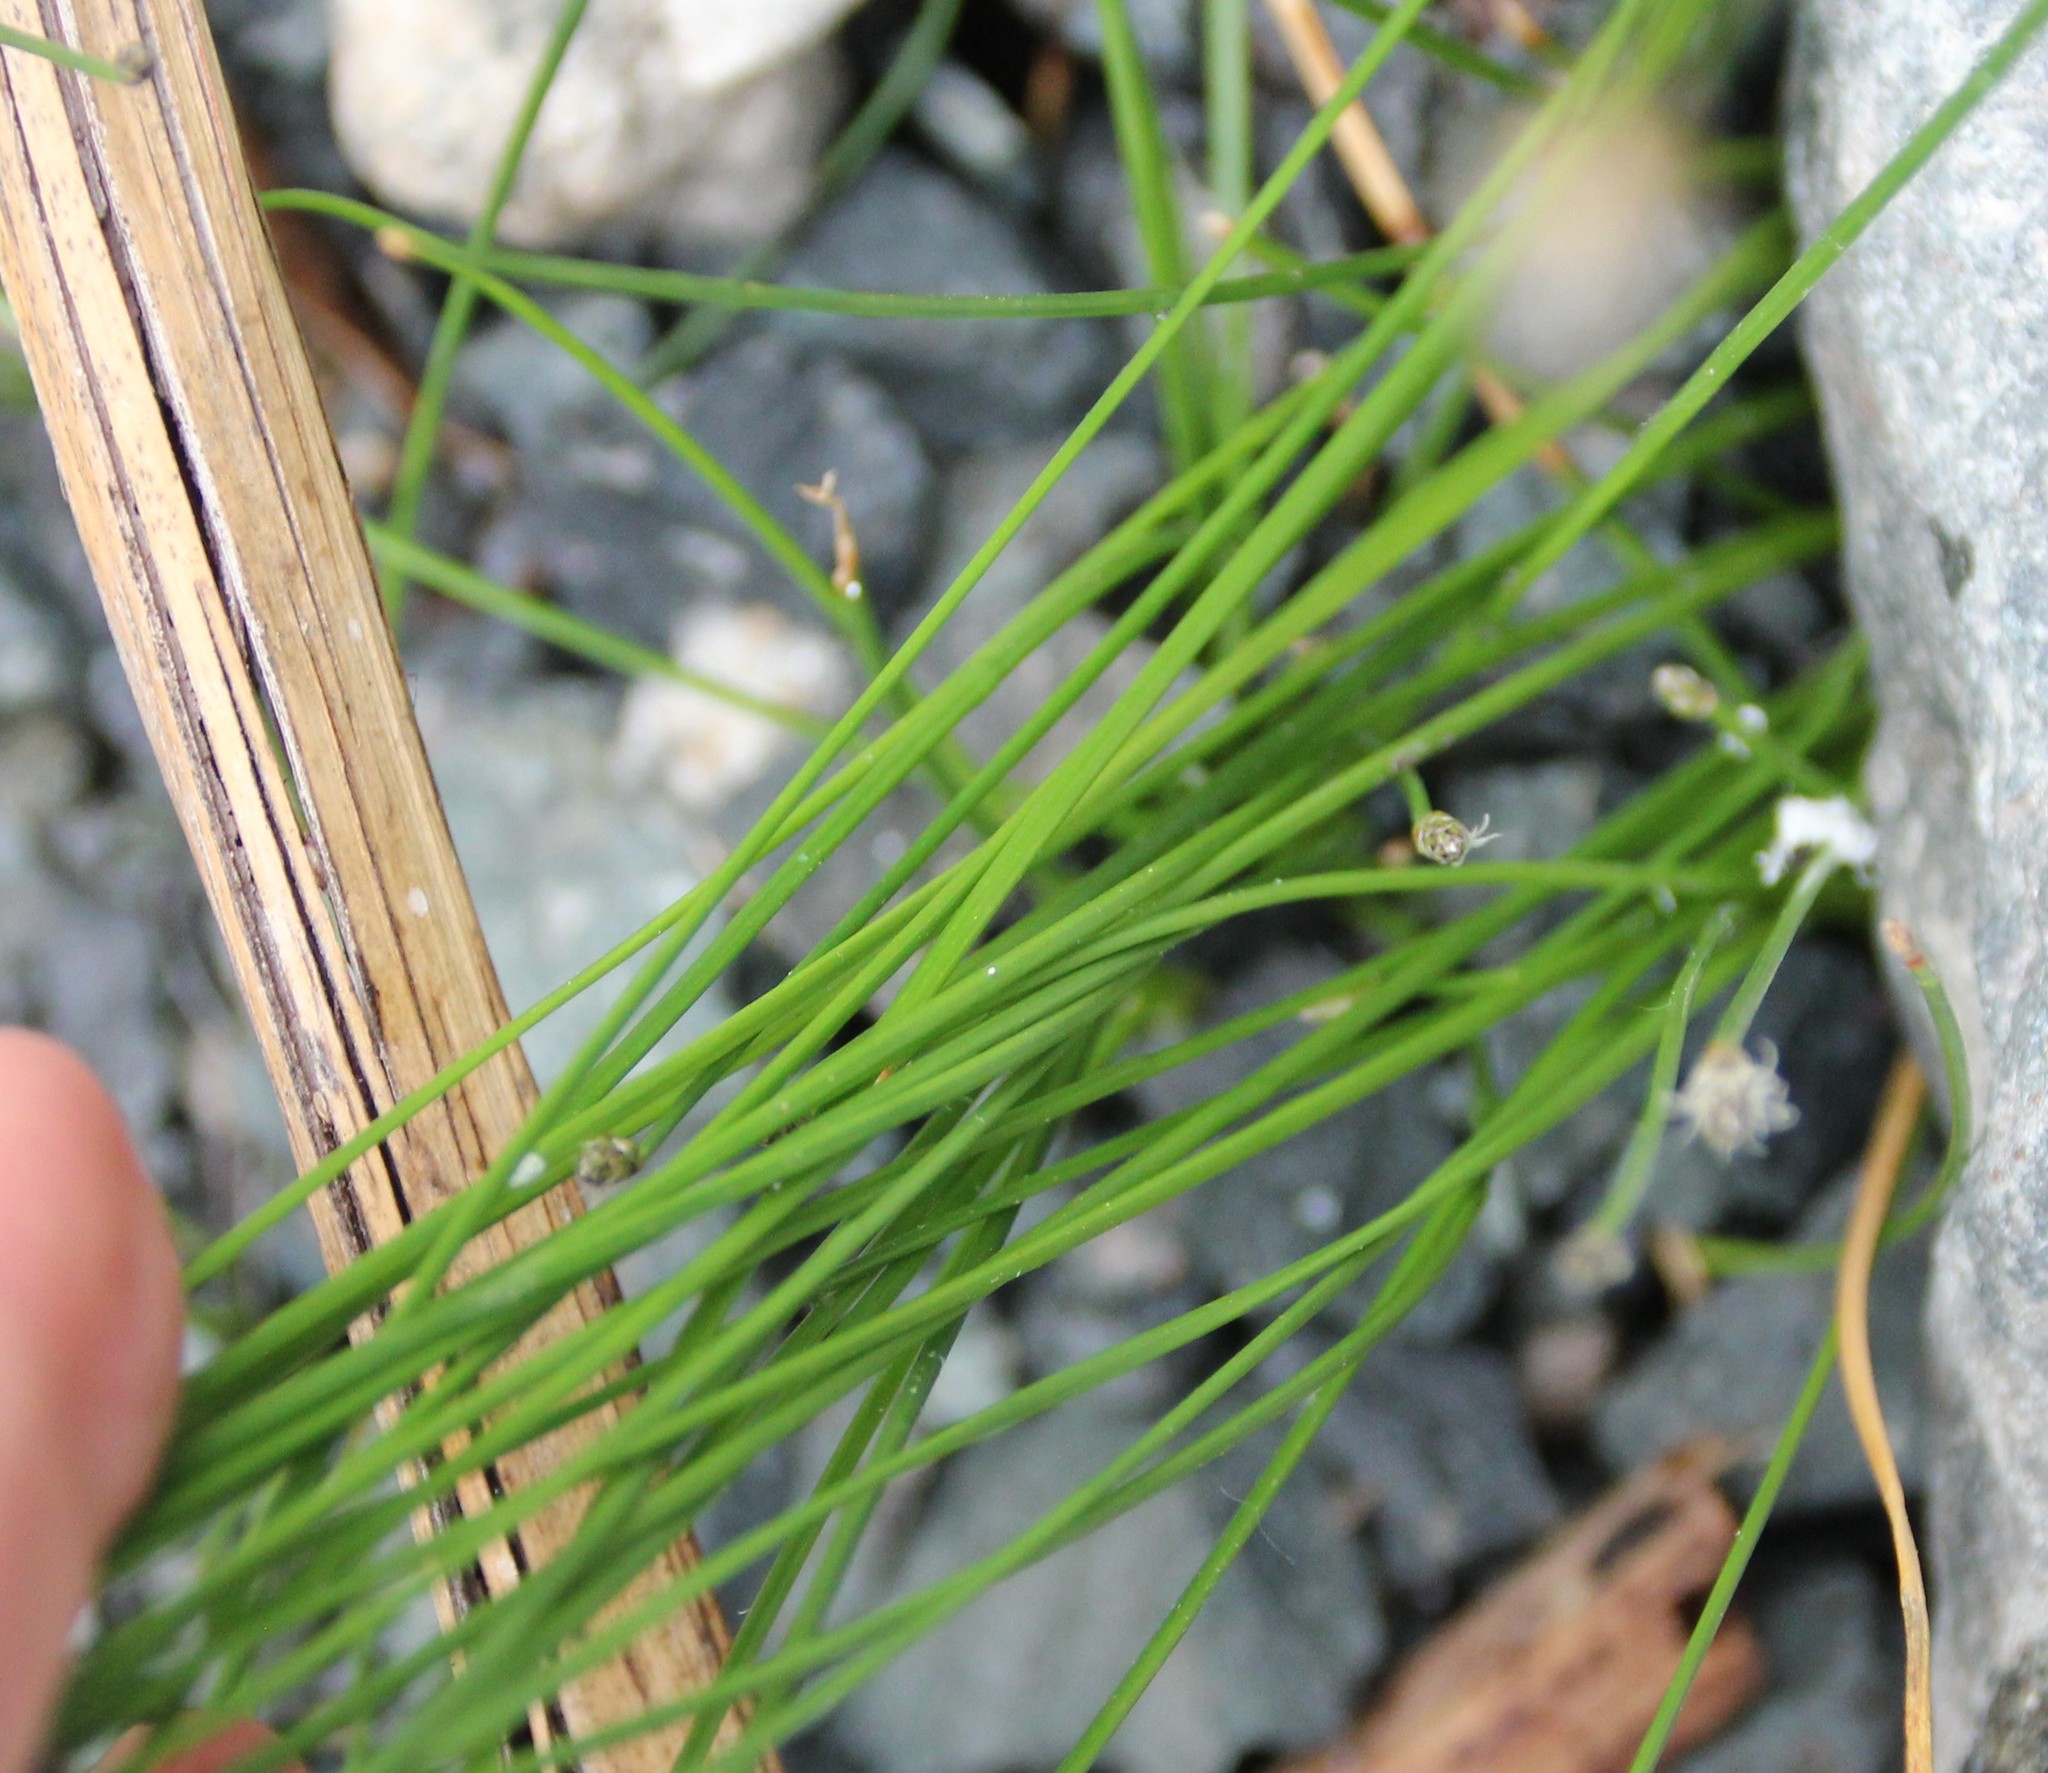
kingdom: Plantae
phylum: Tracheophyta
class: Liliopsida
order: Poales
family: Cyperaceae
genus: Eleocharis
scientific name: Eleocharis montevidensis
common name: Sand spike-rush
